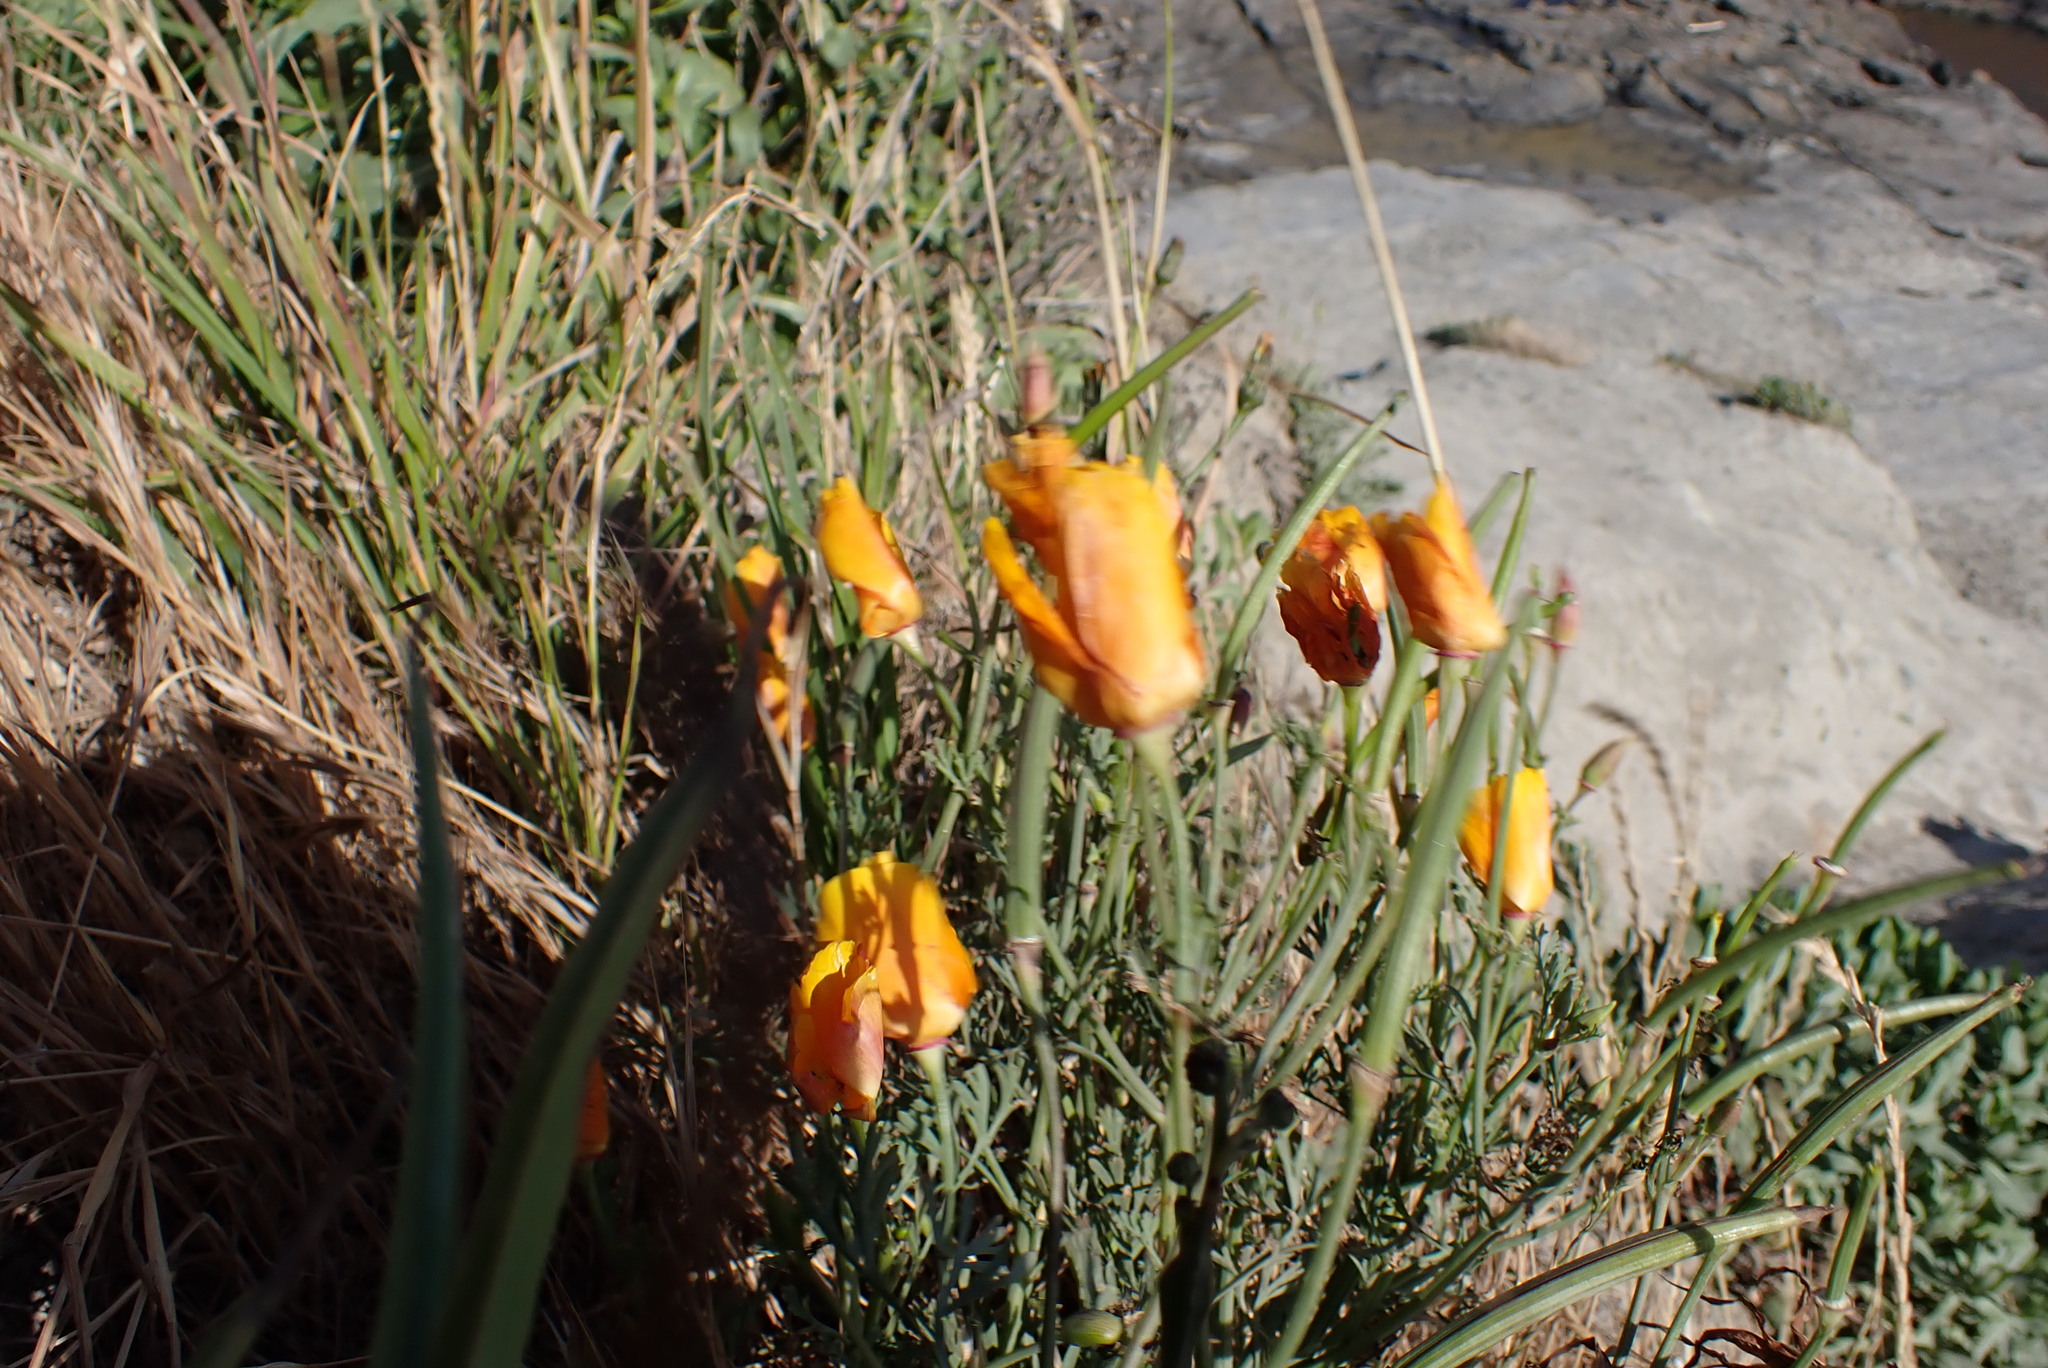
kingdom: Plantae
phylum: Tracheophyta
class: Magnoliopsida
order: Ranunculales
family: Papaveraceae
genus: Eschscholzia
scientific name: Eschscholzia californica
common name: California poppy
